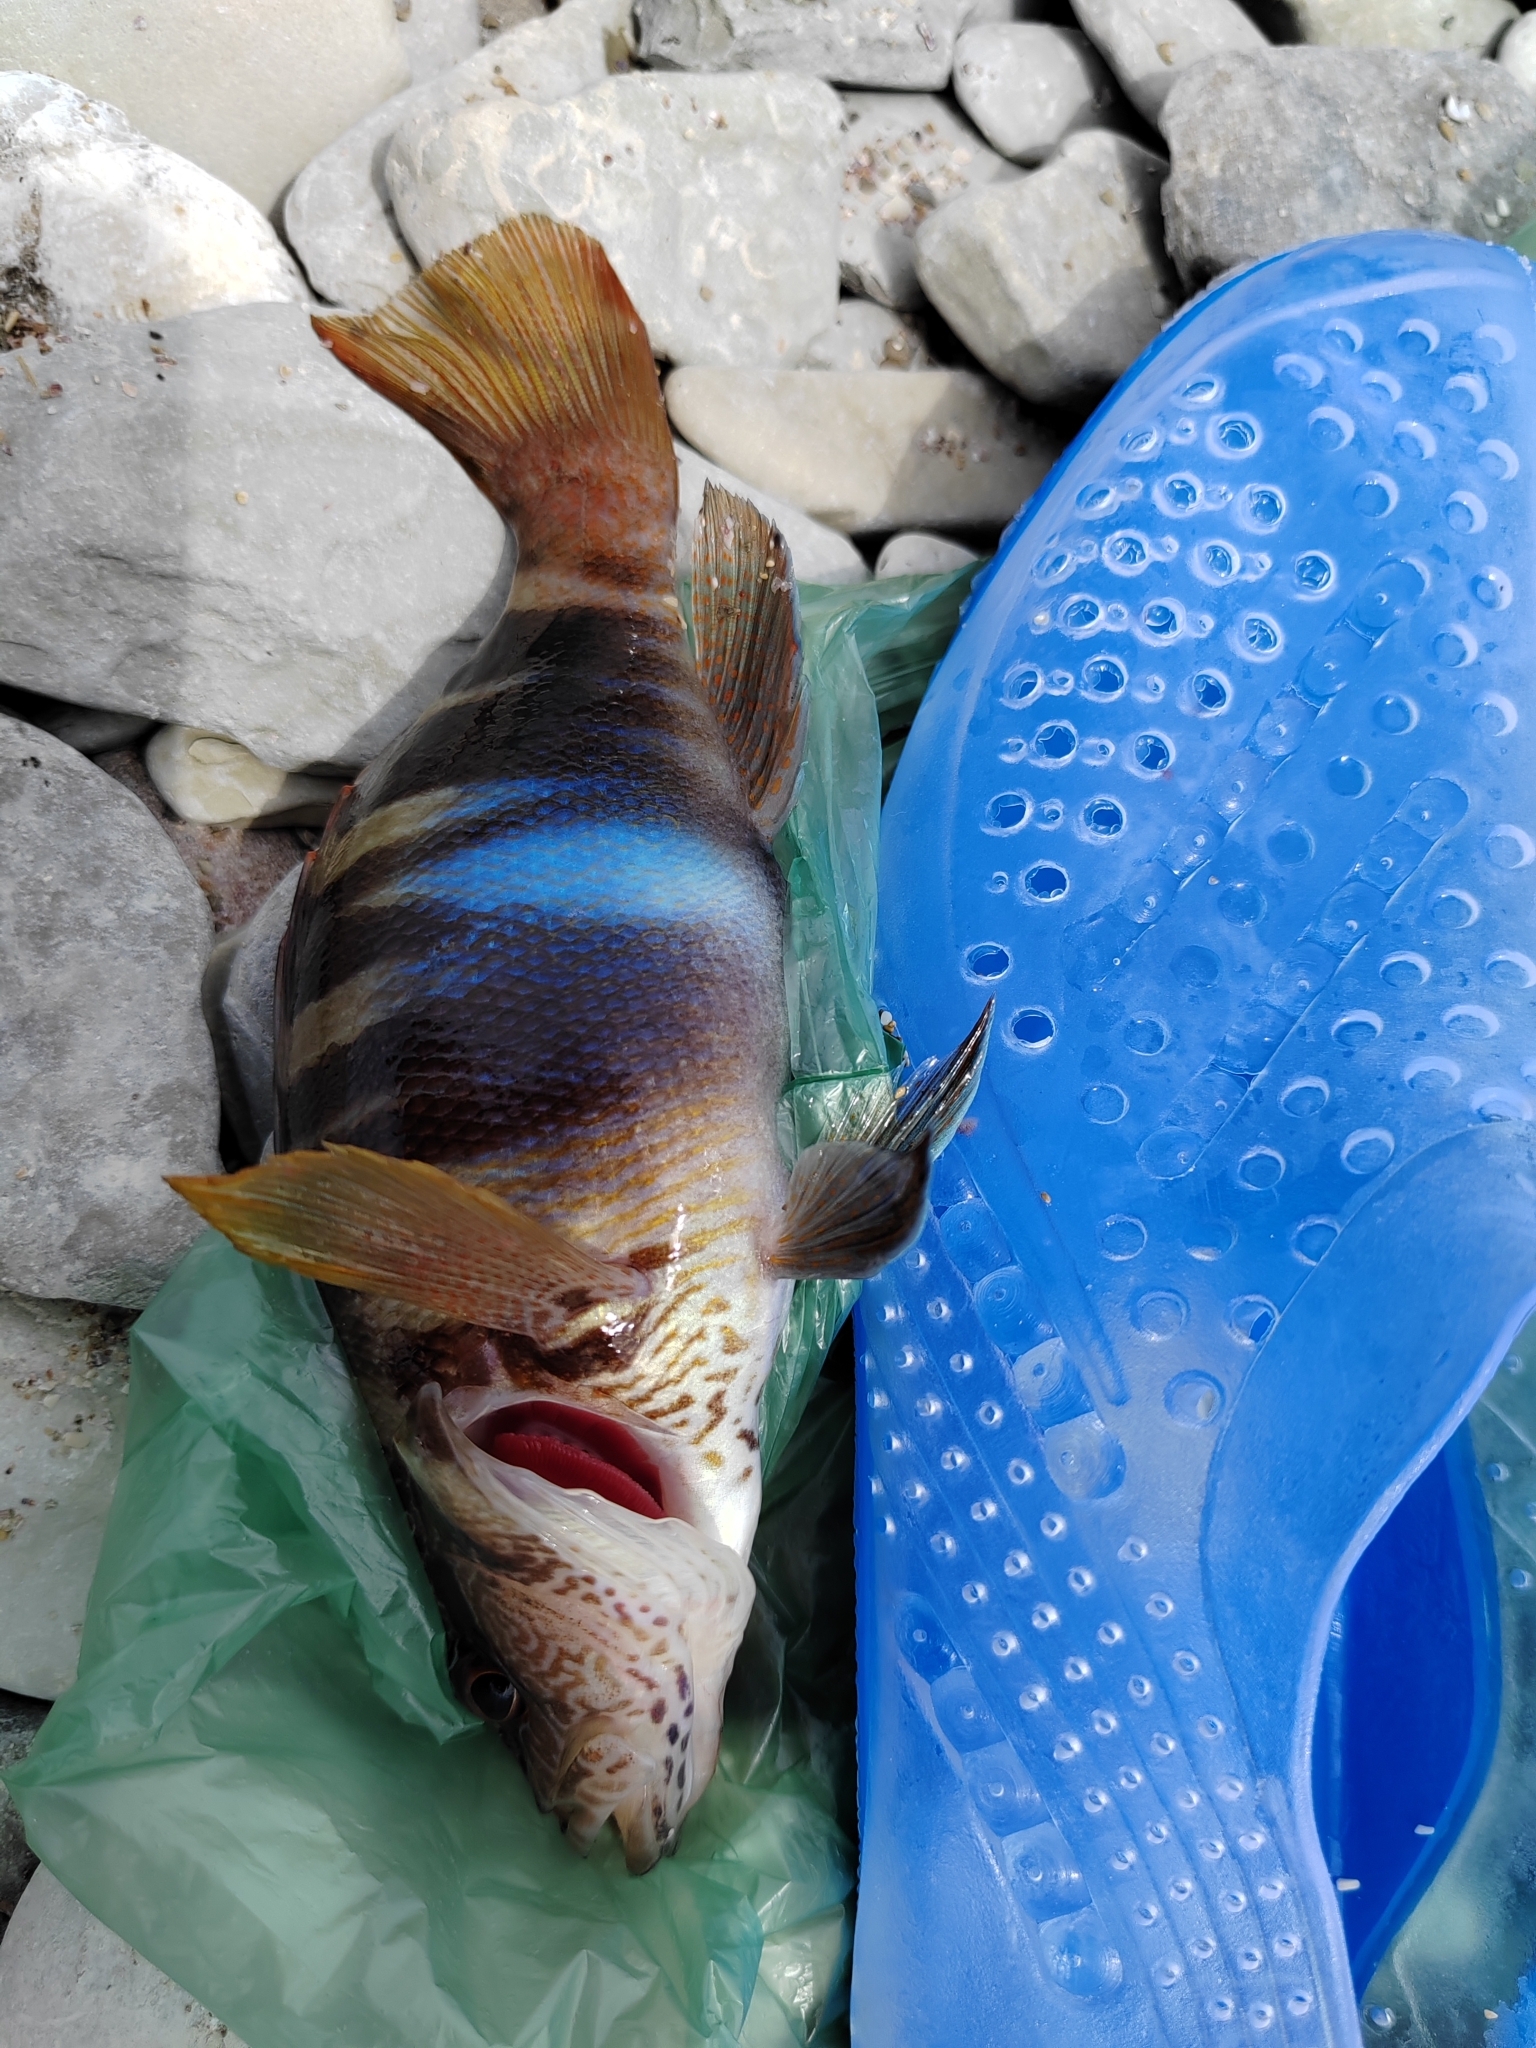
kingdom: Animalia
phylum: Chordata
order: Perciformes
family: Serranidae
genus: Serranus
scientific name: Serranus scriba
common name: Painted comber
